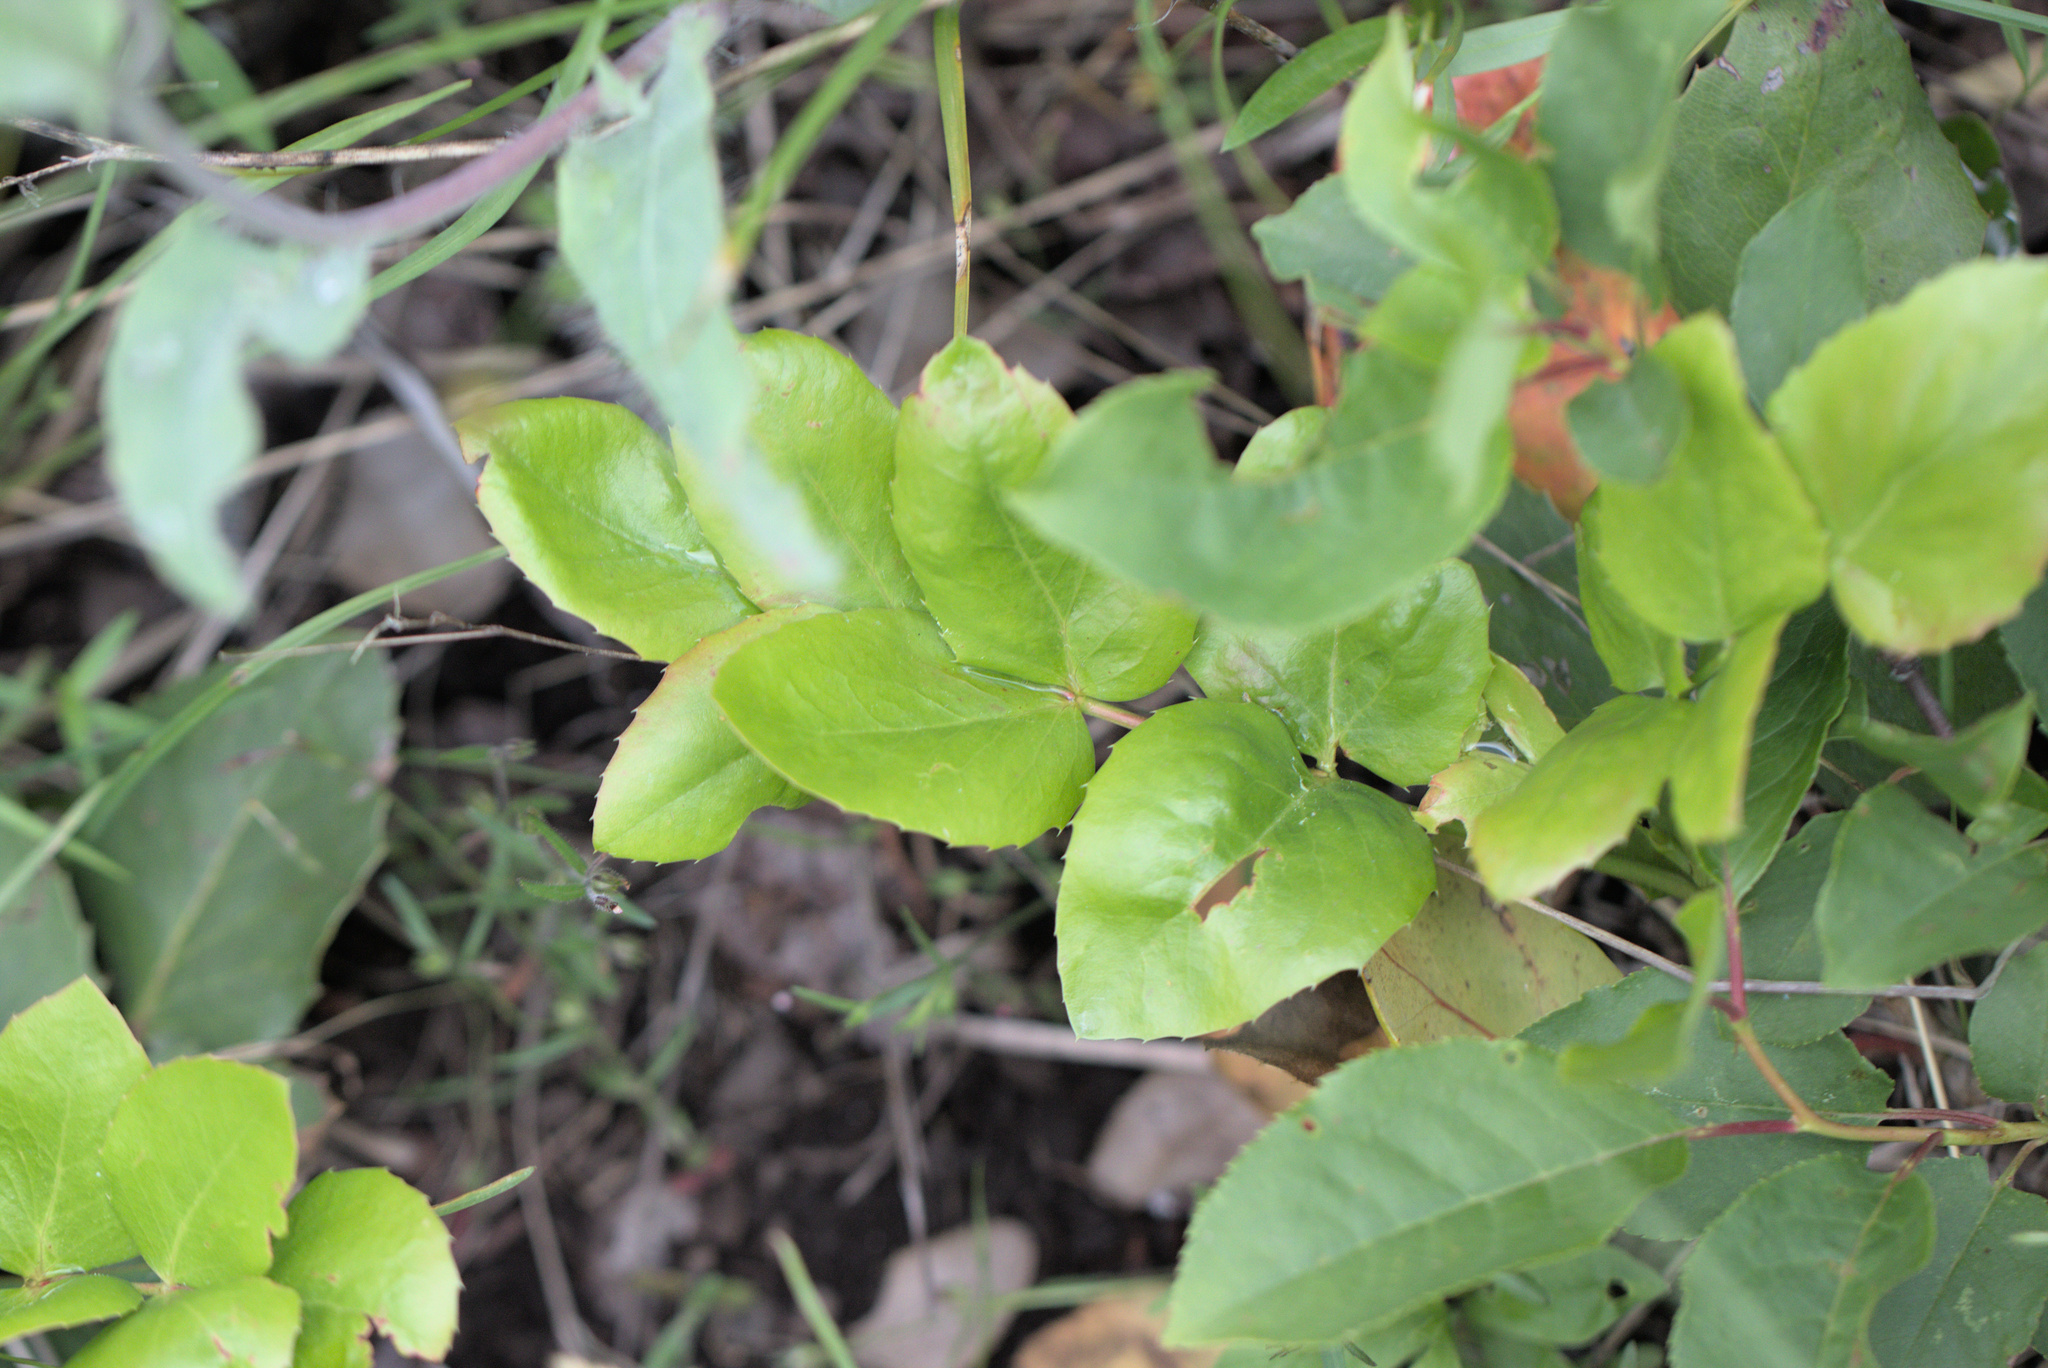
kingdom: Plantae
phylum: Tracheophyta
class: Magnoliopsida
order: Ranunculales
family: Berberidaceae
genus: Mahonia
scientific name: Mahonia repens
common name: Creeping oregon-grape
